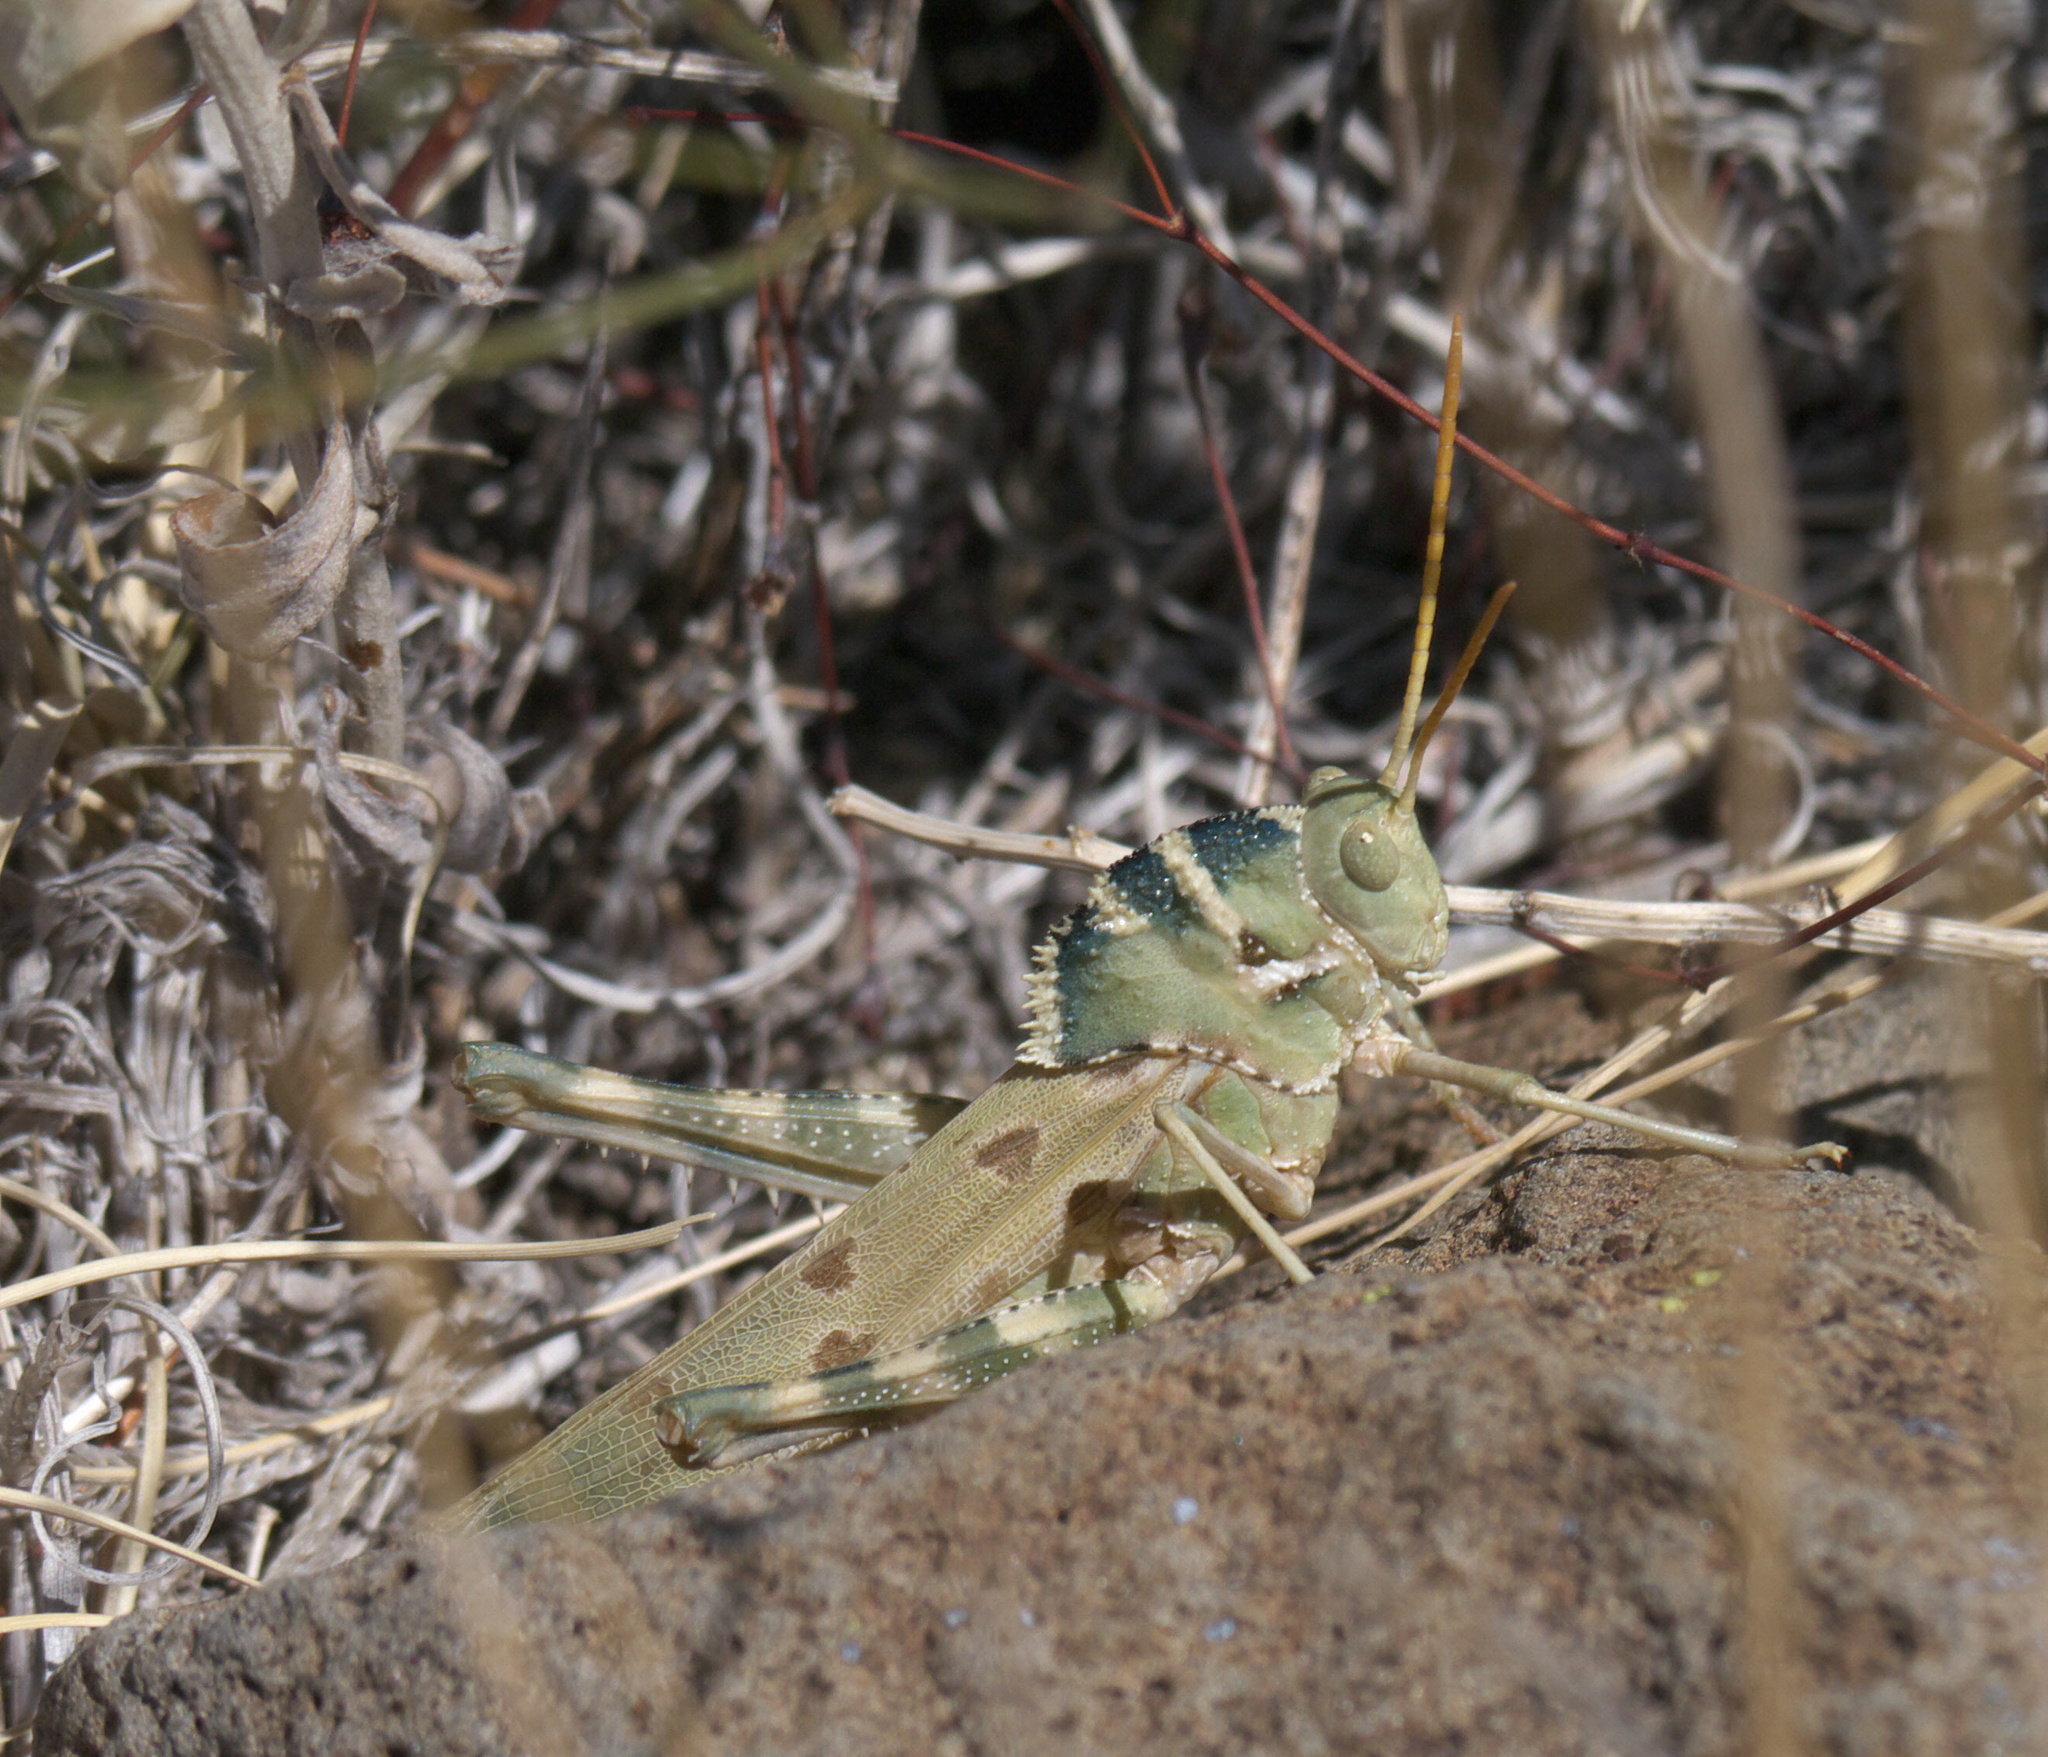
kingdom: Animalia
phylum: Arthropoda
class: Insecta
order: Orthoptera
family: Acrididae
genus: Tropidolophus
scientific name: Tropidolophus formosus
